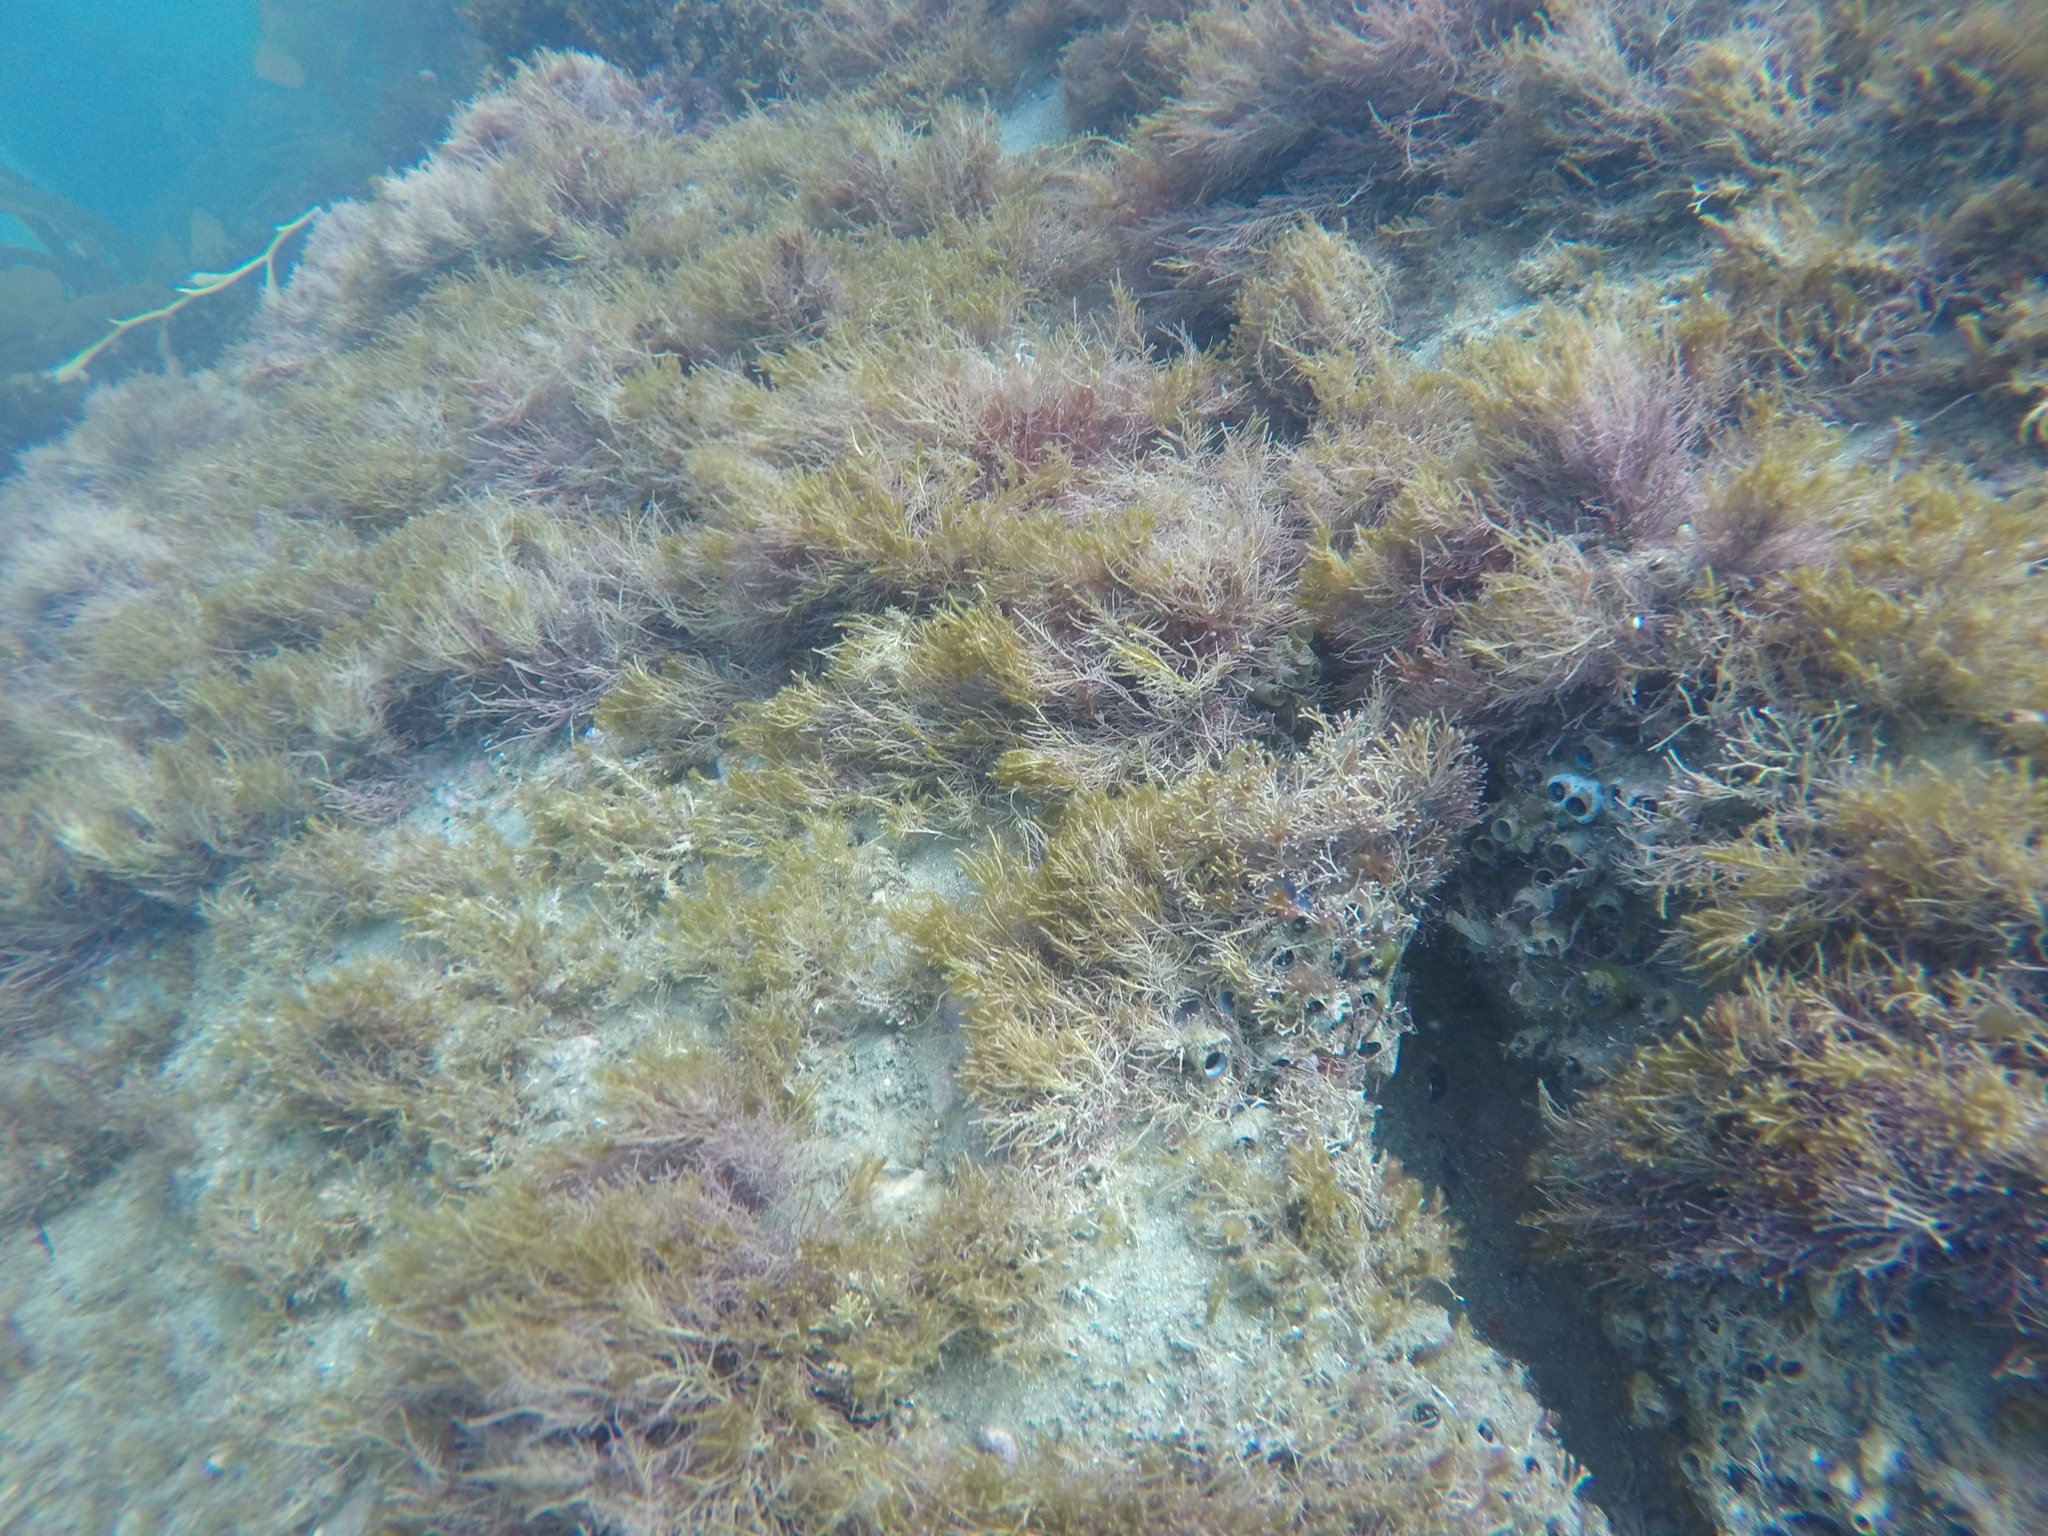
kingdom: Plantae
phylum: Rhodophyta
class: Florideophyceae
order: Corallinales
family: Lithophyllaceae
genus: Lithothrix
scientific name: Lithothrix aspergillum
